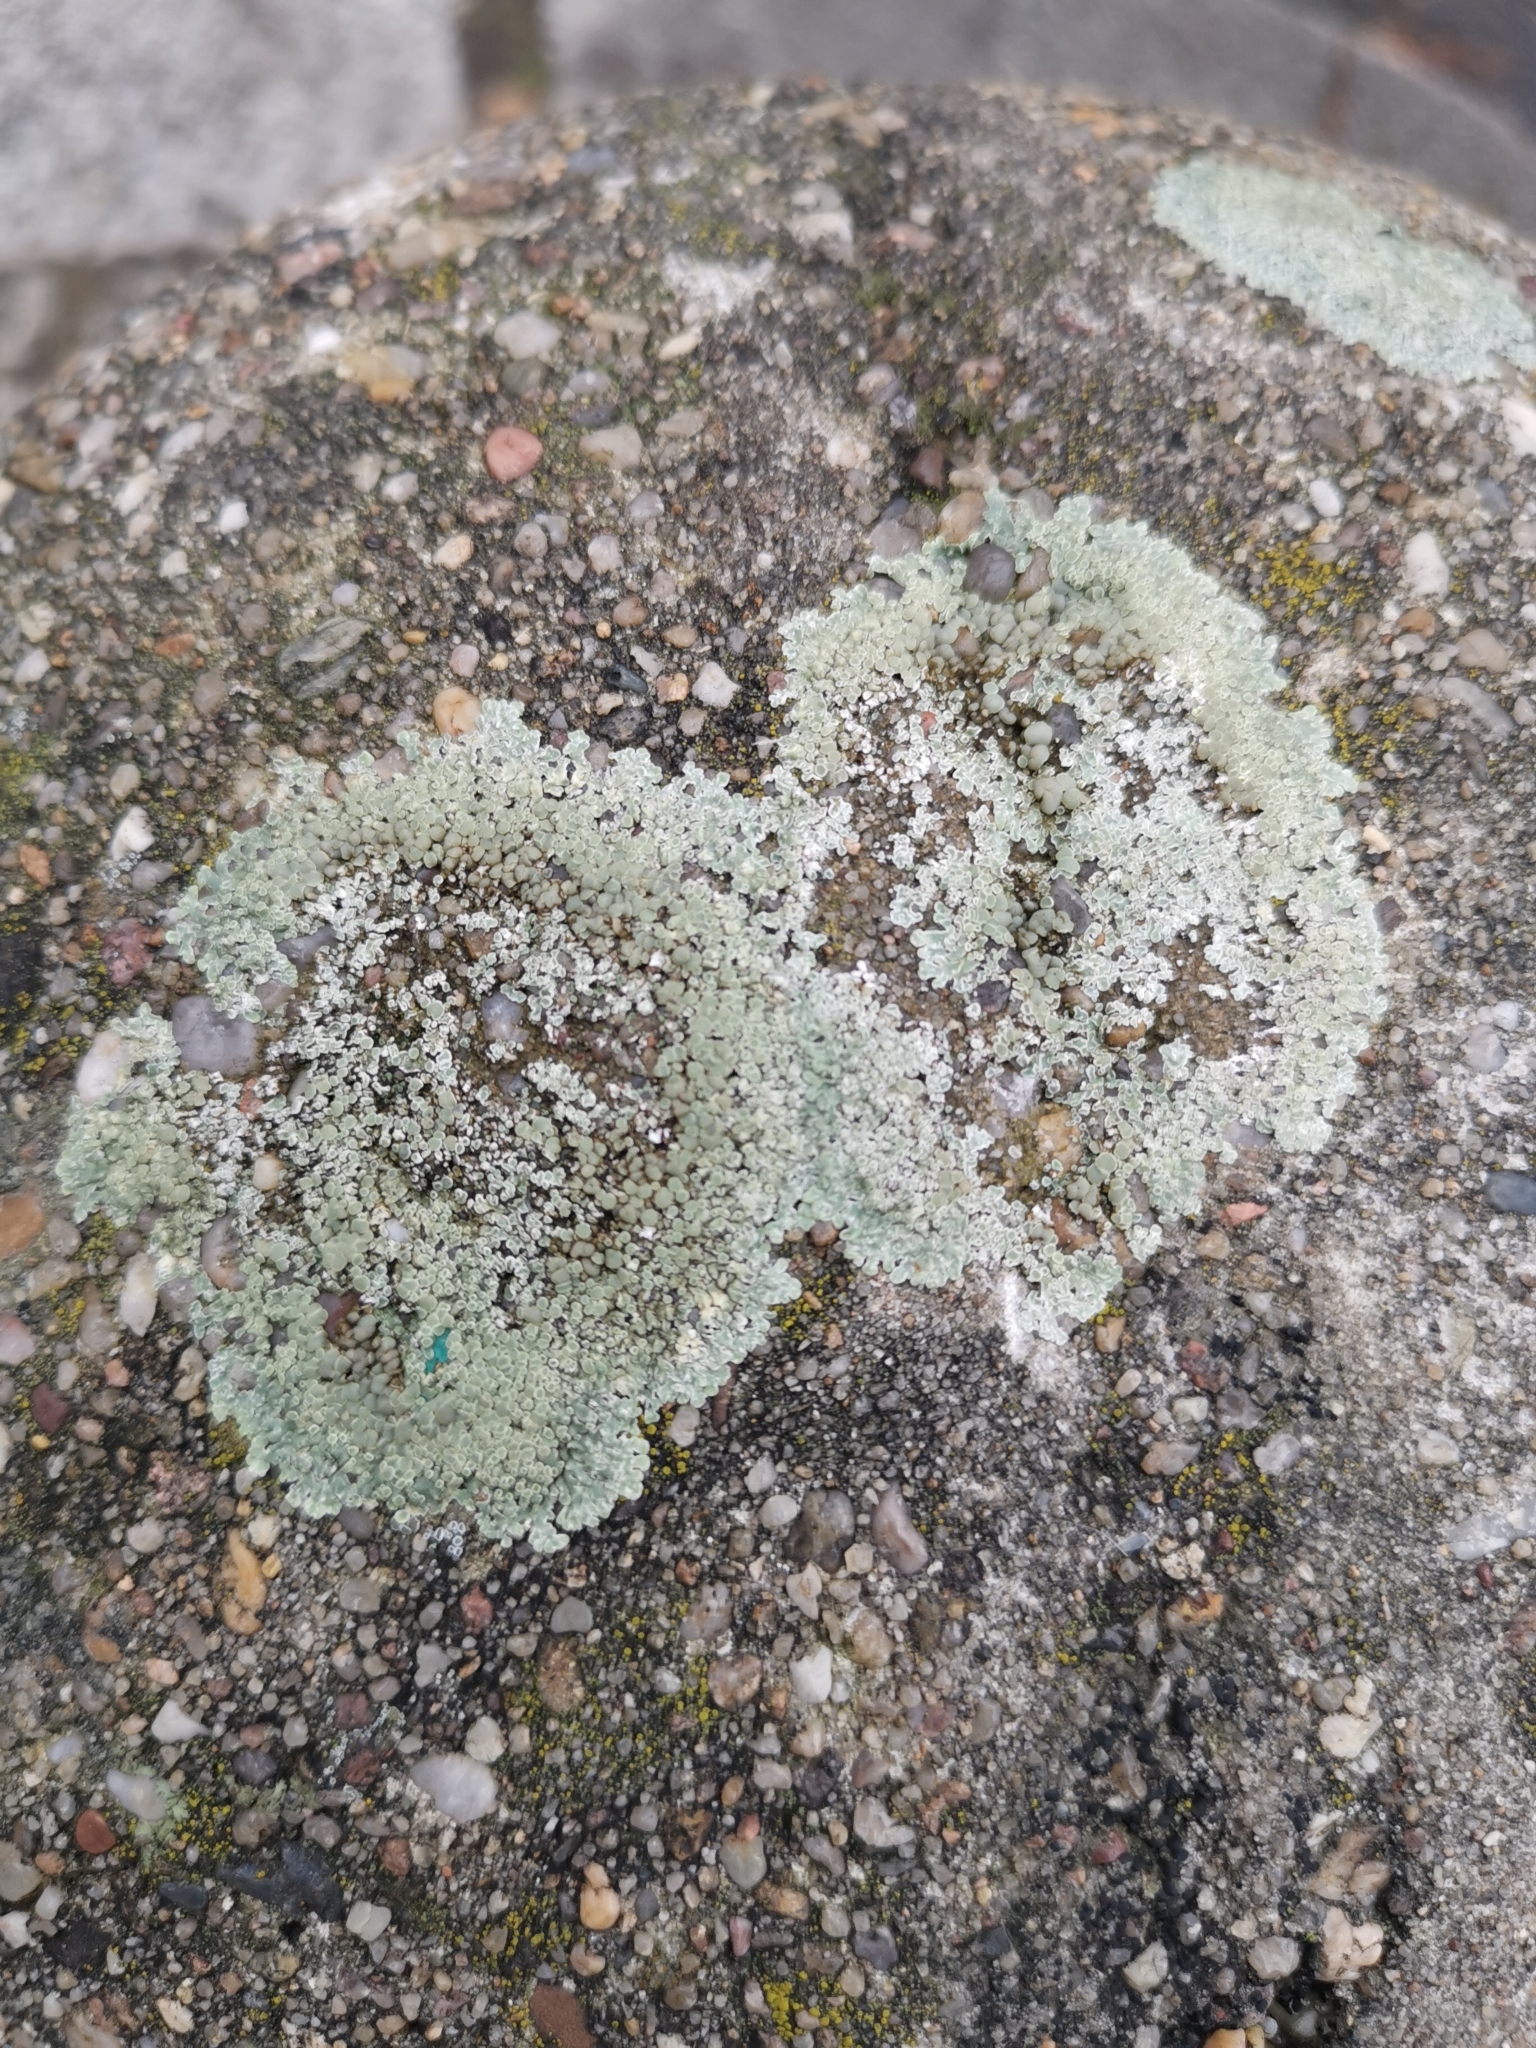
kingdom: Fungi
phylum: Ascomycota
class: Lecanoromycetes
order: Lecanorales
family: Lecanoraceae
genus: Protoparmeliopsis
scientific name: Protoparmeliopsis muralis
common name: Stonewall rim lichen
